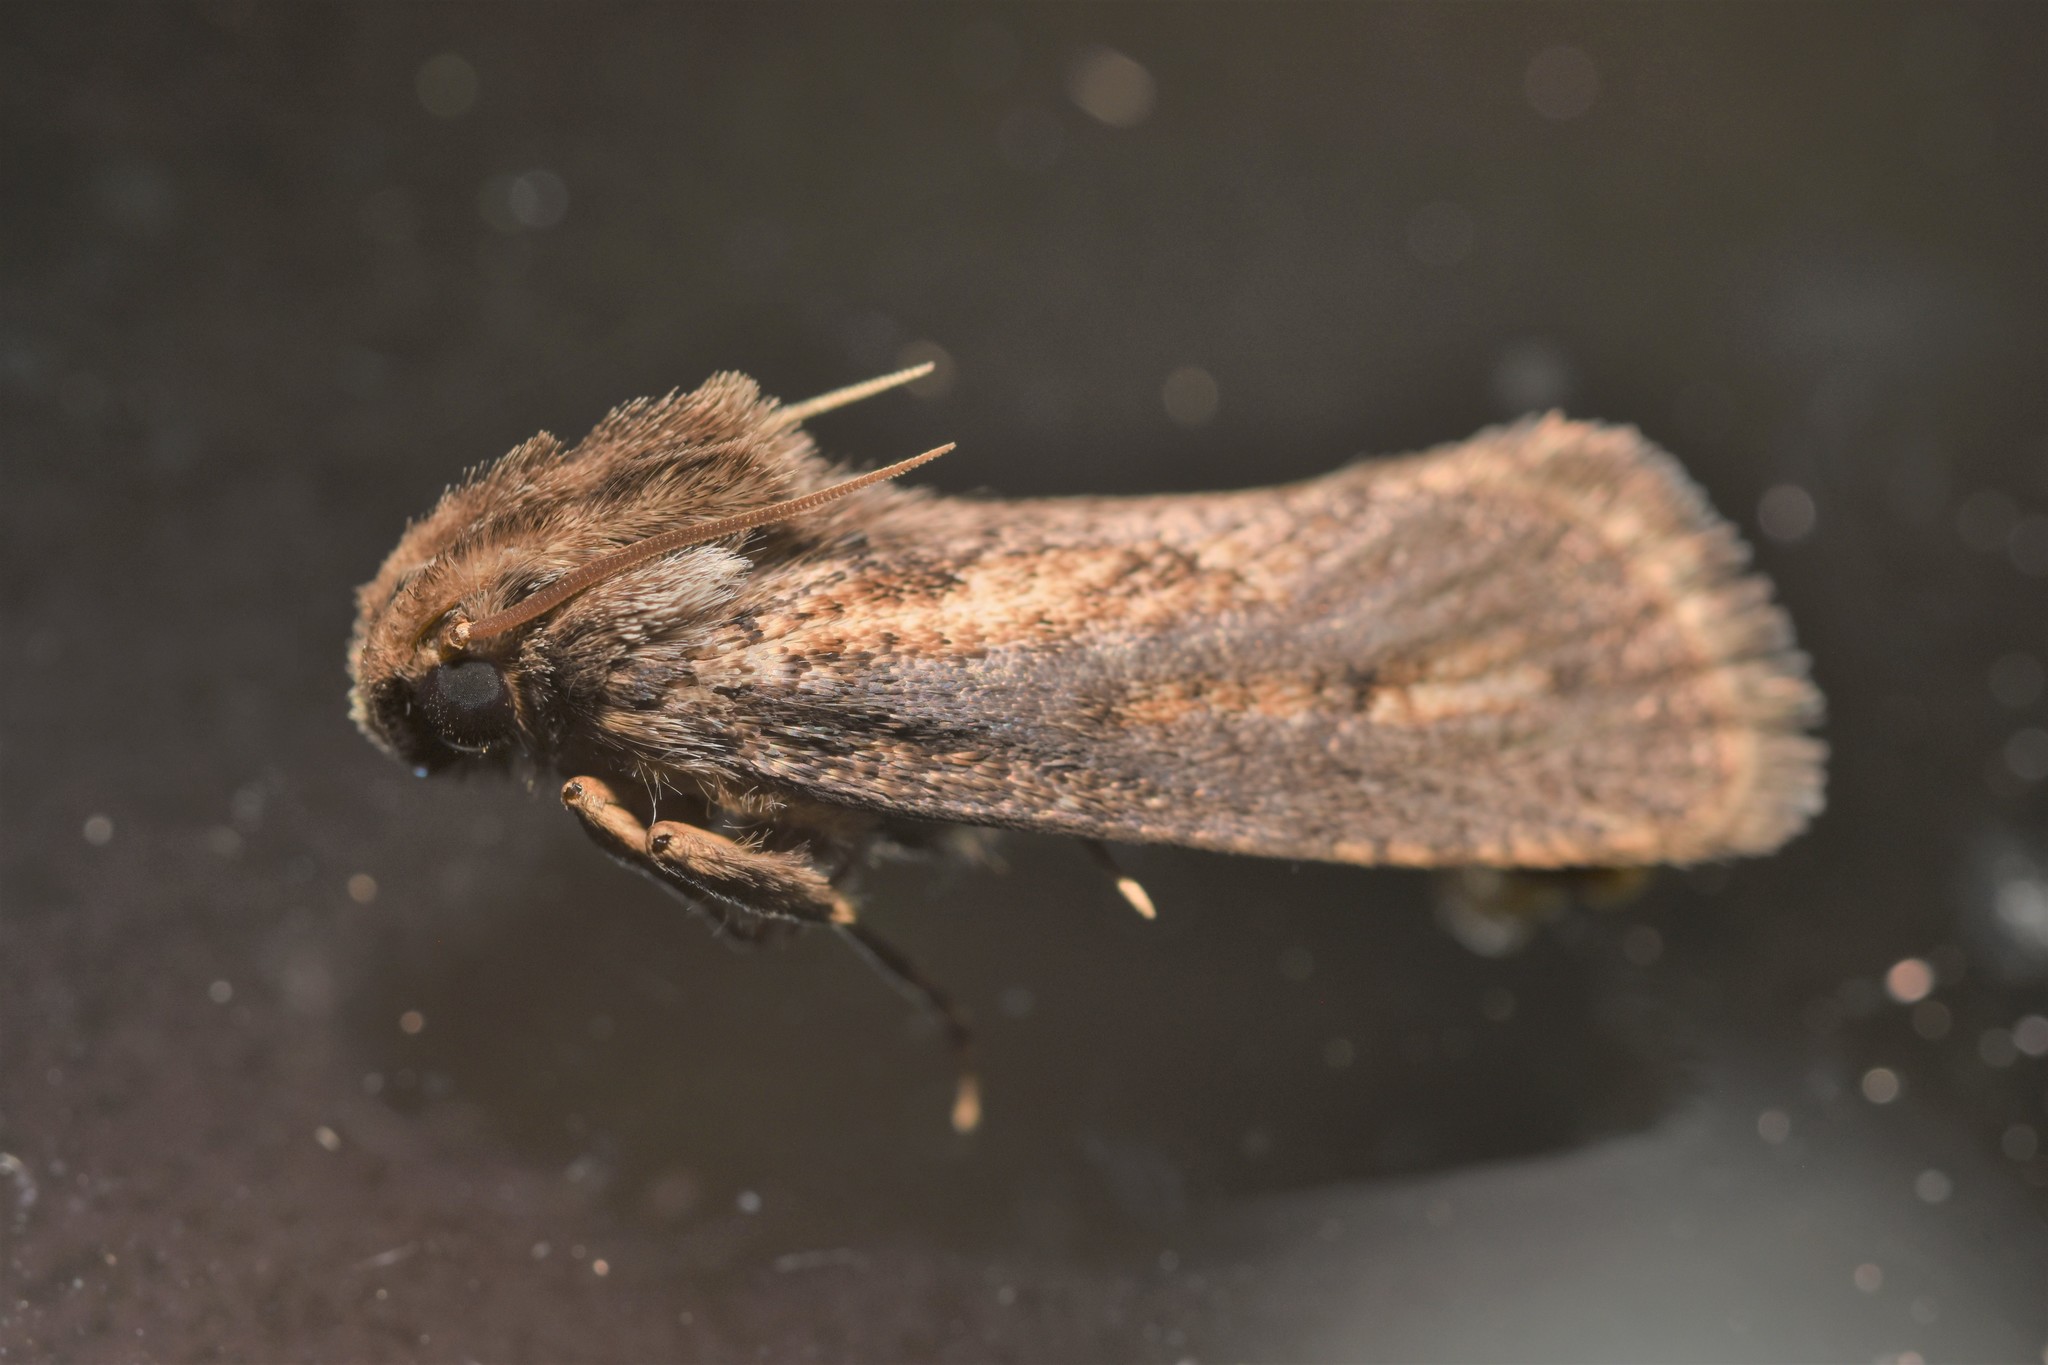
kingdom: Animalia
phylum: Arthropoda
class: Insecta
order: Lepidoptera
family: Tineidae
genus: Acrolophus
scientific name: Acrolophus popeanella
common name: Clemens' grass tubeworm moth
